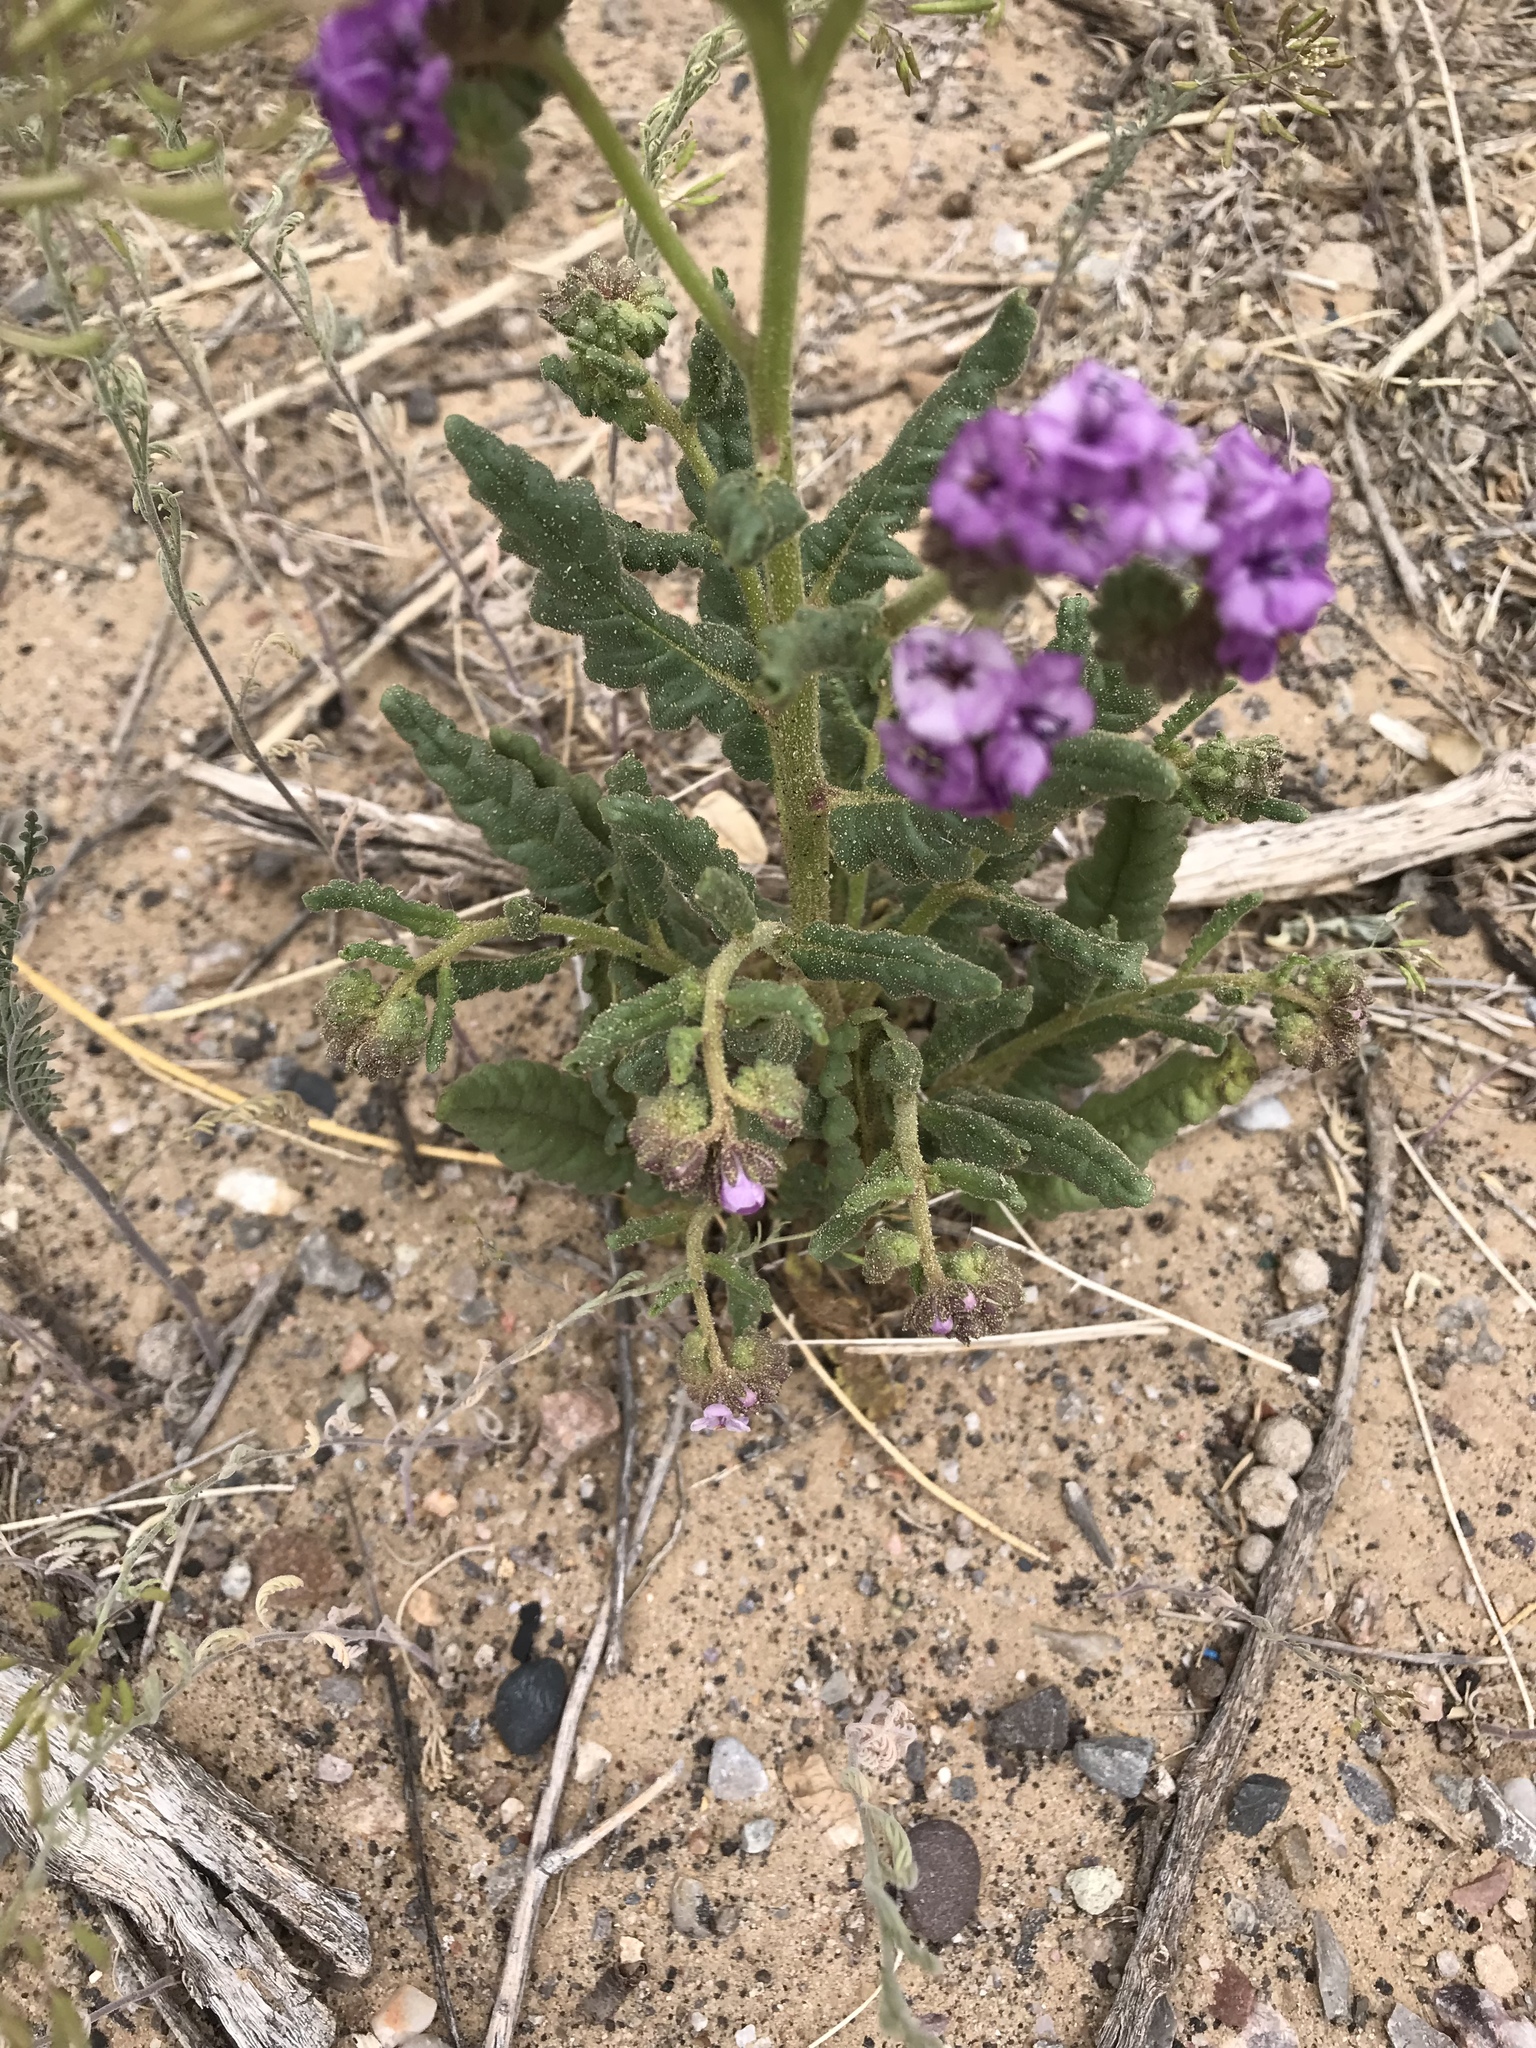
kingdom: Plantae
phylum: Tracheophyta
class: Magnoliopsida
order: Boraginales
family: Hydrophyllaceae
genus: Phacelia
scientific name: Phacelia integrifolia
